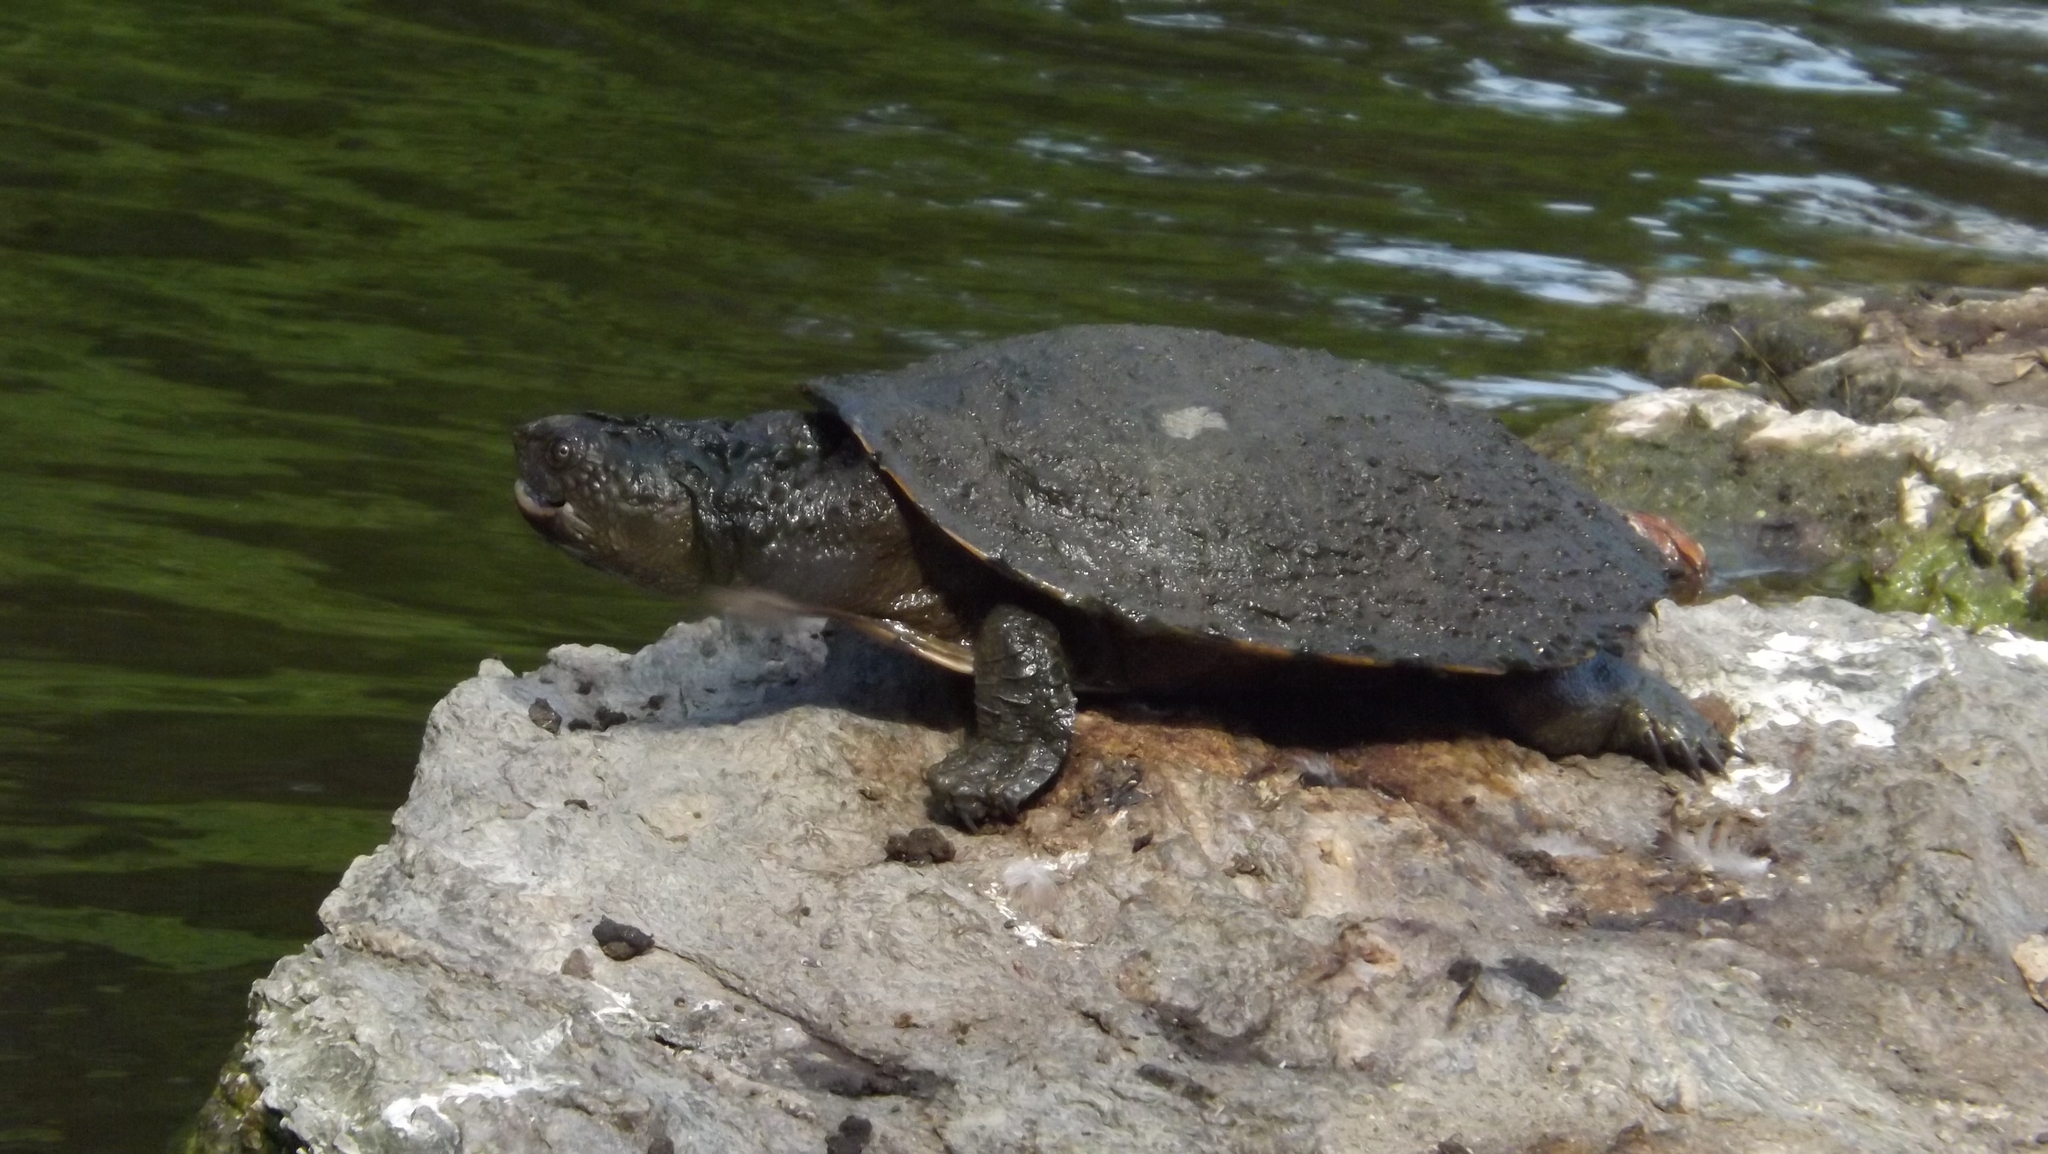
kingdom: Animalia
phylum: Chordata
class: Testudines
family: Chelidae
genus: Myuchelys
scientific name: Myuchelys latisternum
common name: Serrated snapping turtle
